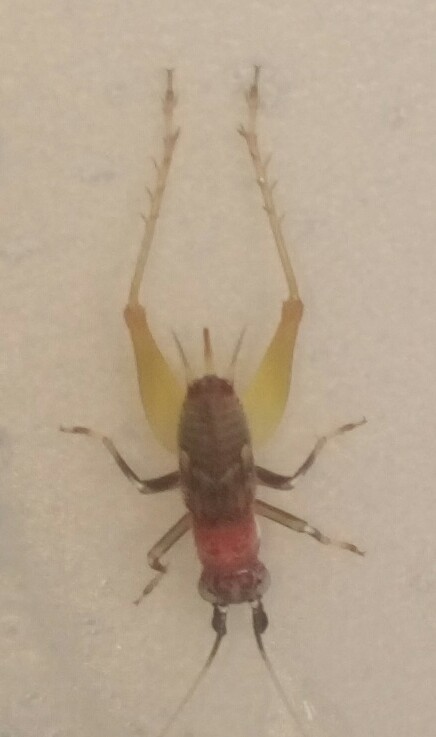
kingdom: Animalia
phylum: Arthropoda
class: Insecta
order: Orthoptera
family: Trigonidiidae
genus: Phyllopalpus
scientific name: Phyllopalpus pulchellus
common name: Handsome trig
